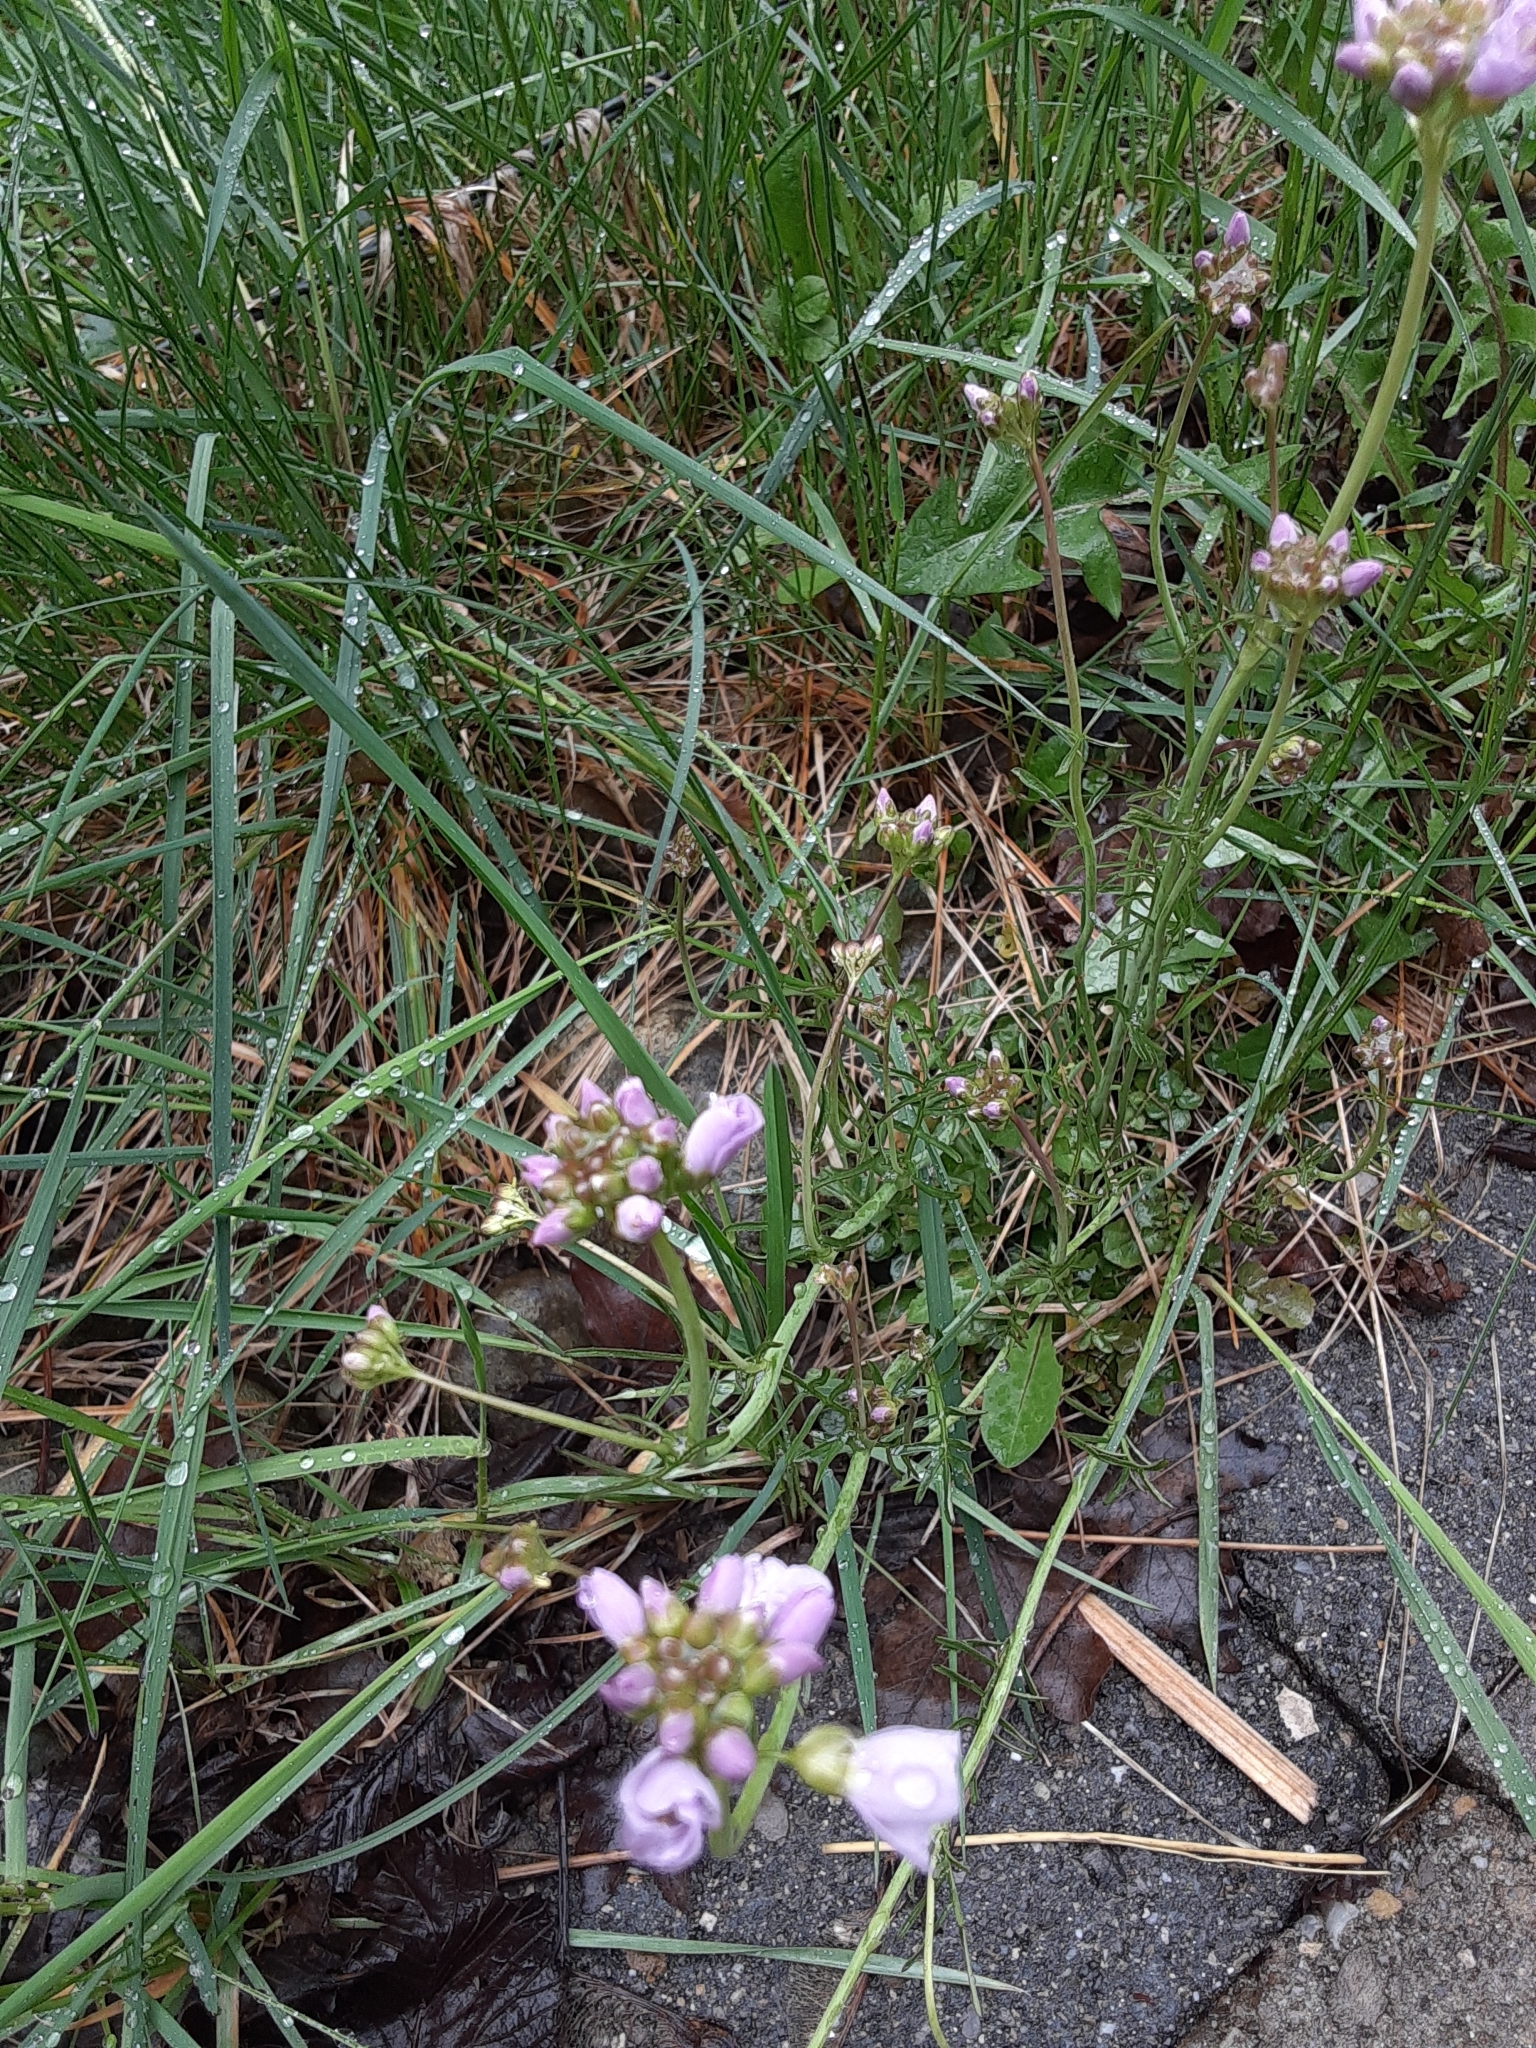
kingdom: Plantae
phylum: Tracheophyta
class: Magnoliopsida
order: Brassicales
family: Brassicaceae
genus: Cardamine
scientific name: Cardamine pratensis
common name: Cuckoo flower
